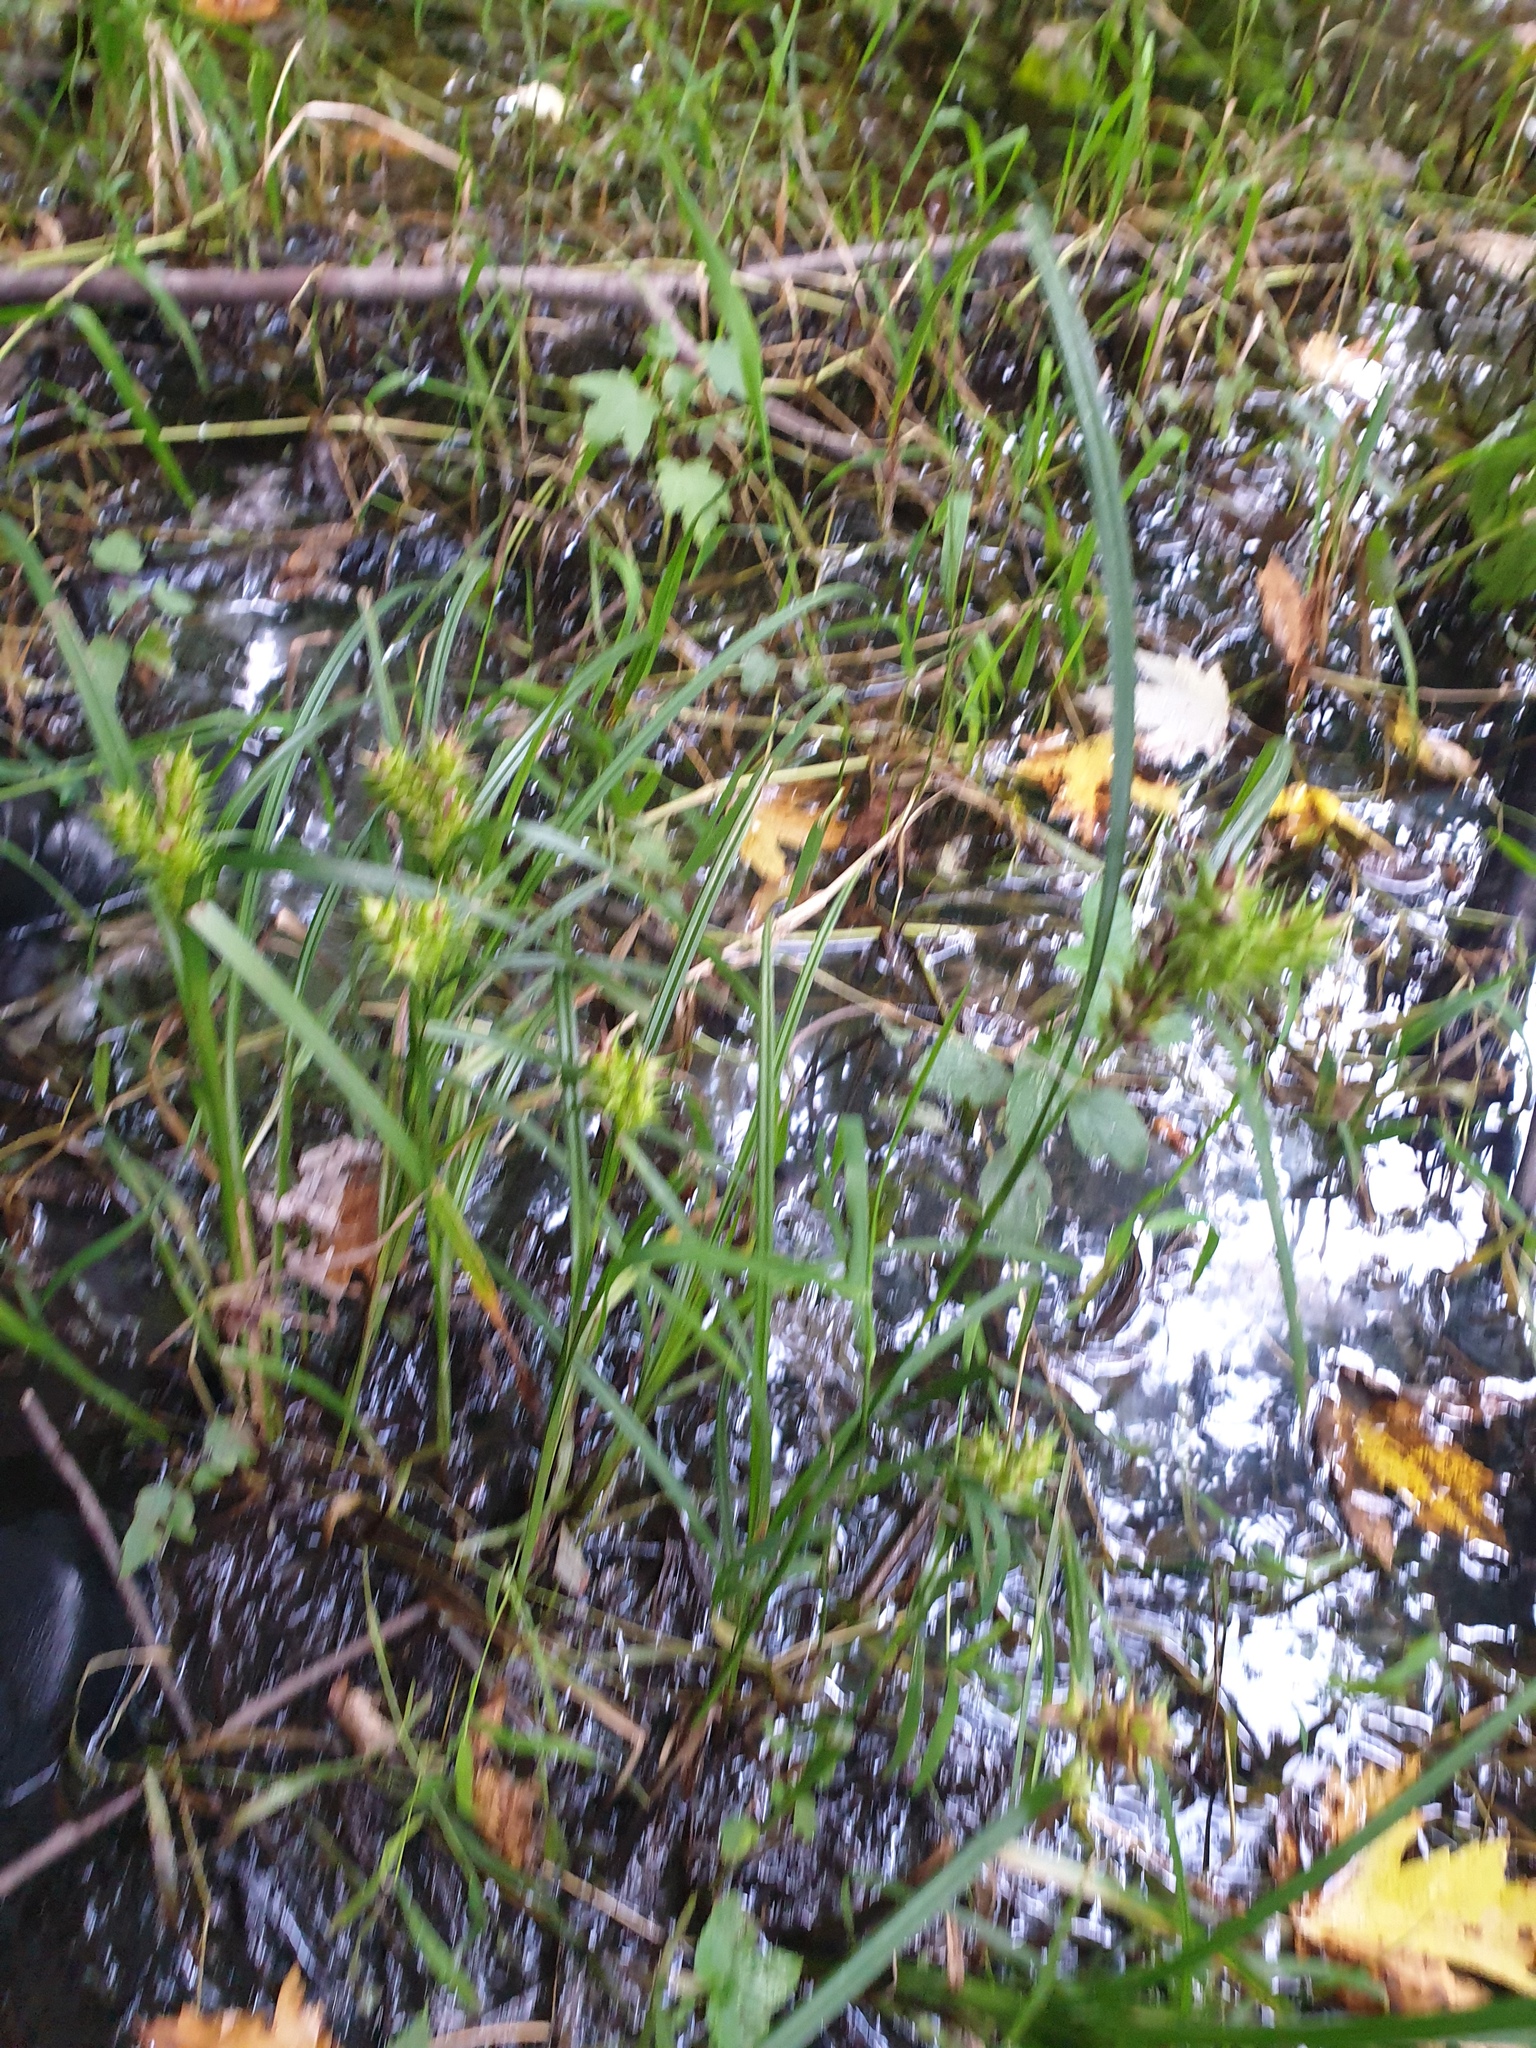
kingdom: Plantae
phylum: Tracheophyta
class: Liliopsida
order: Poales
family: Cyperaceae
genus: Carex
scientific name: Carex lupulina
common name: Hop sedge
